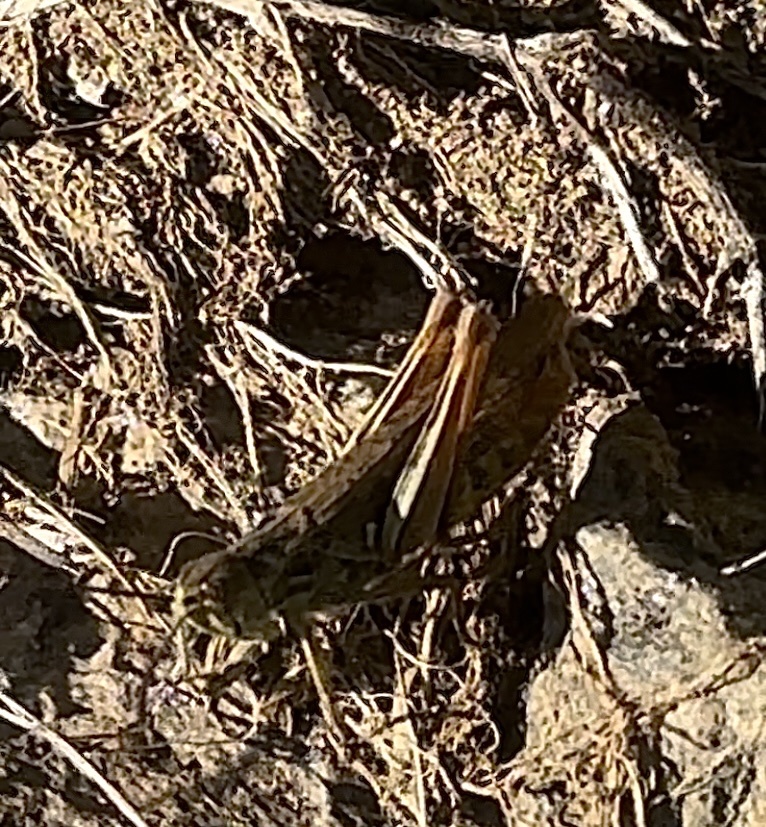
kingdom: Animalia
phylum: Arthropoda
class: Insecta
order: Orthoptera
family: Acrididae
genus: Chorthippus
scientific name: Chorthippus biguttulus
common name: Bow-winged grasshopper
